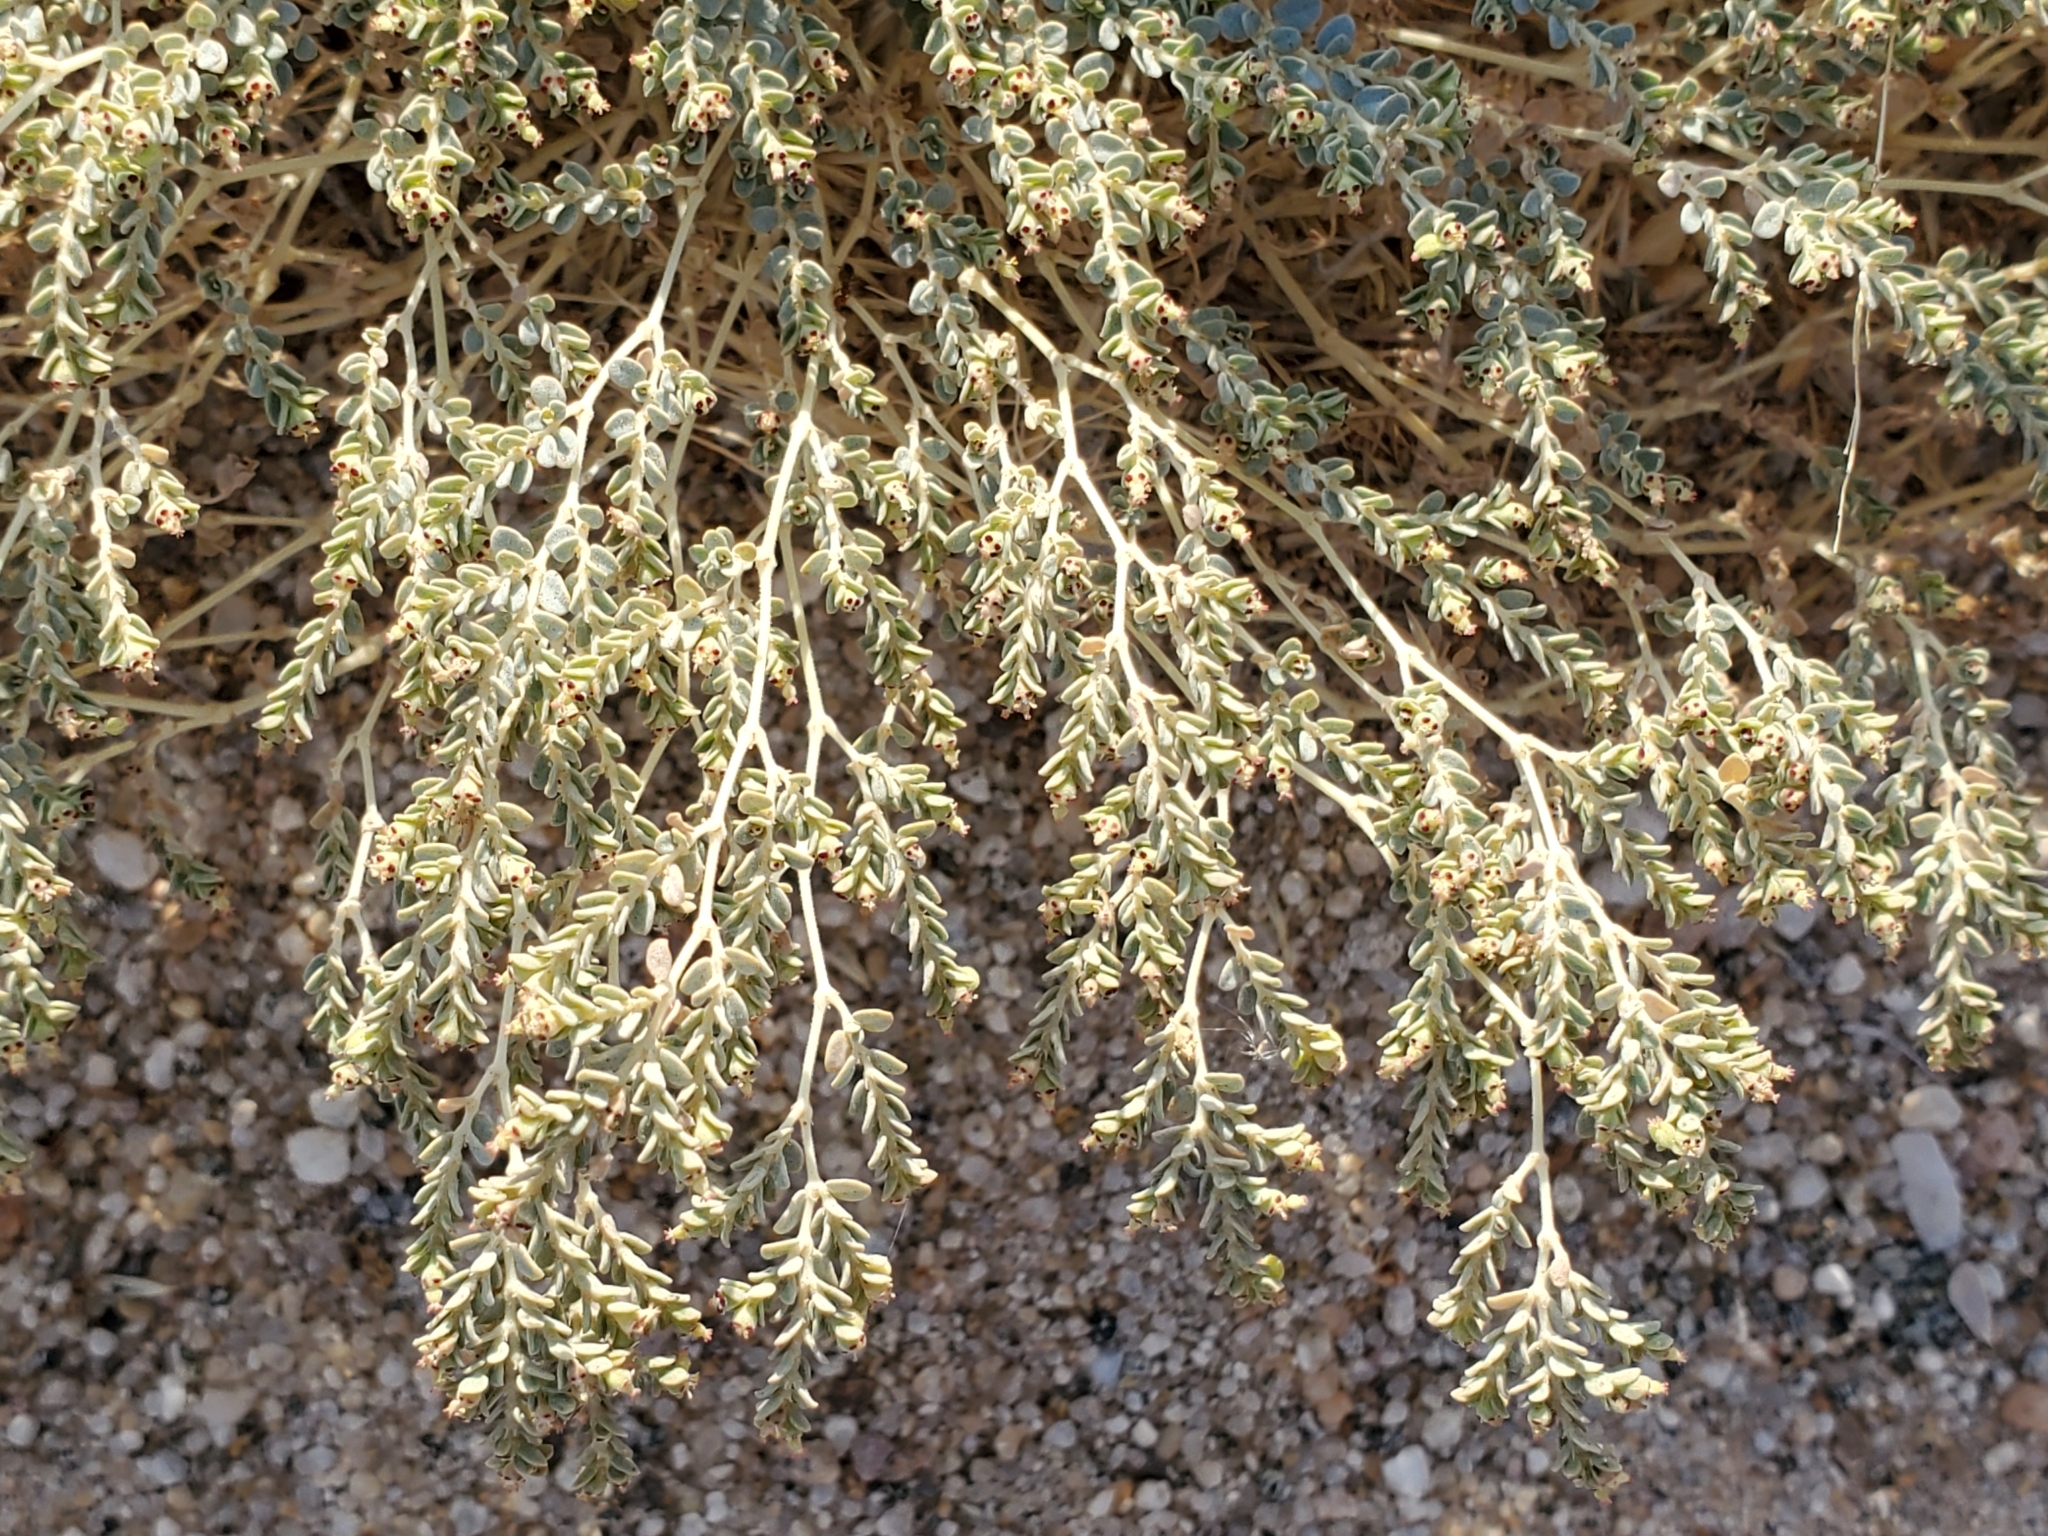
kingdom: Plantae
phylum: Tracheophyta
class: Magnoliopsida
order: Malpighiales
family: Euphorbiaceae
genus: Euphorbia
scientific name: Euphorbia polycarpa
